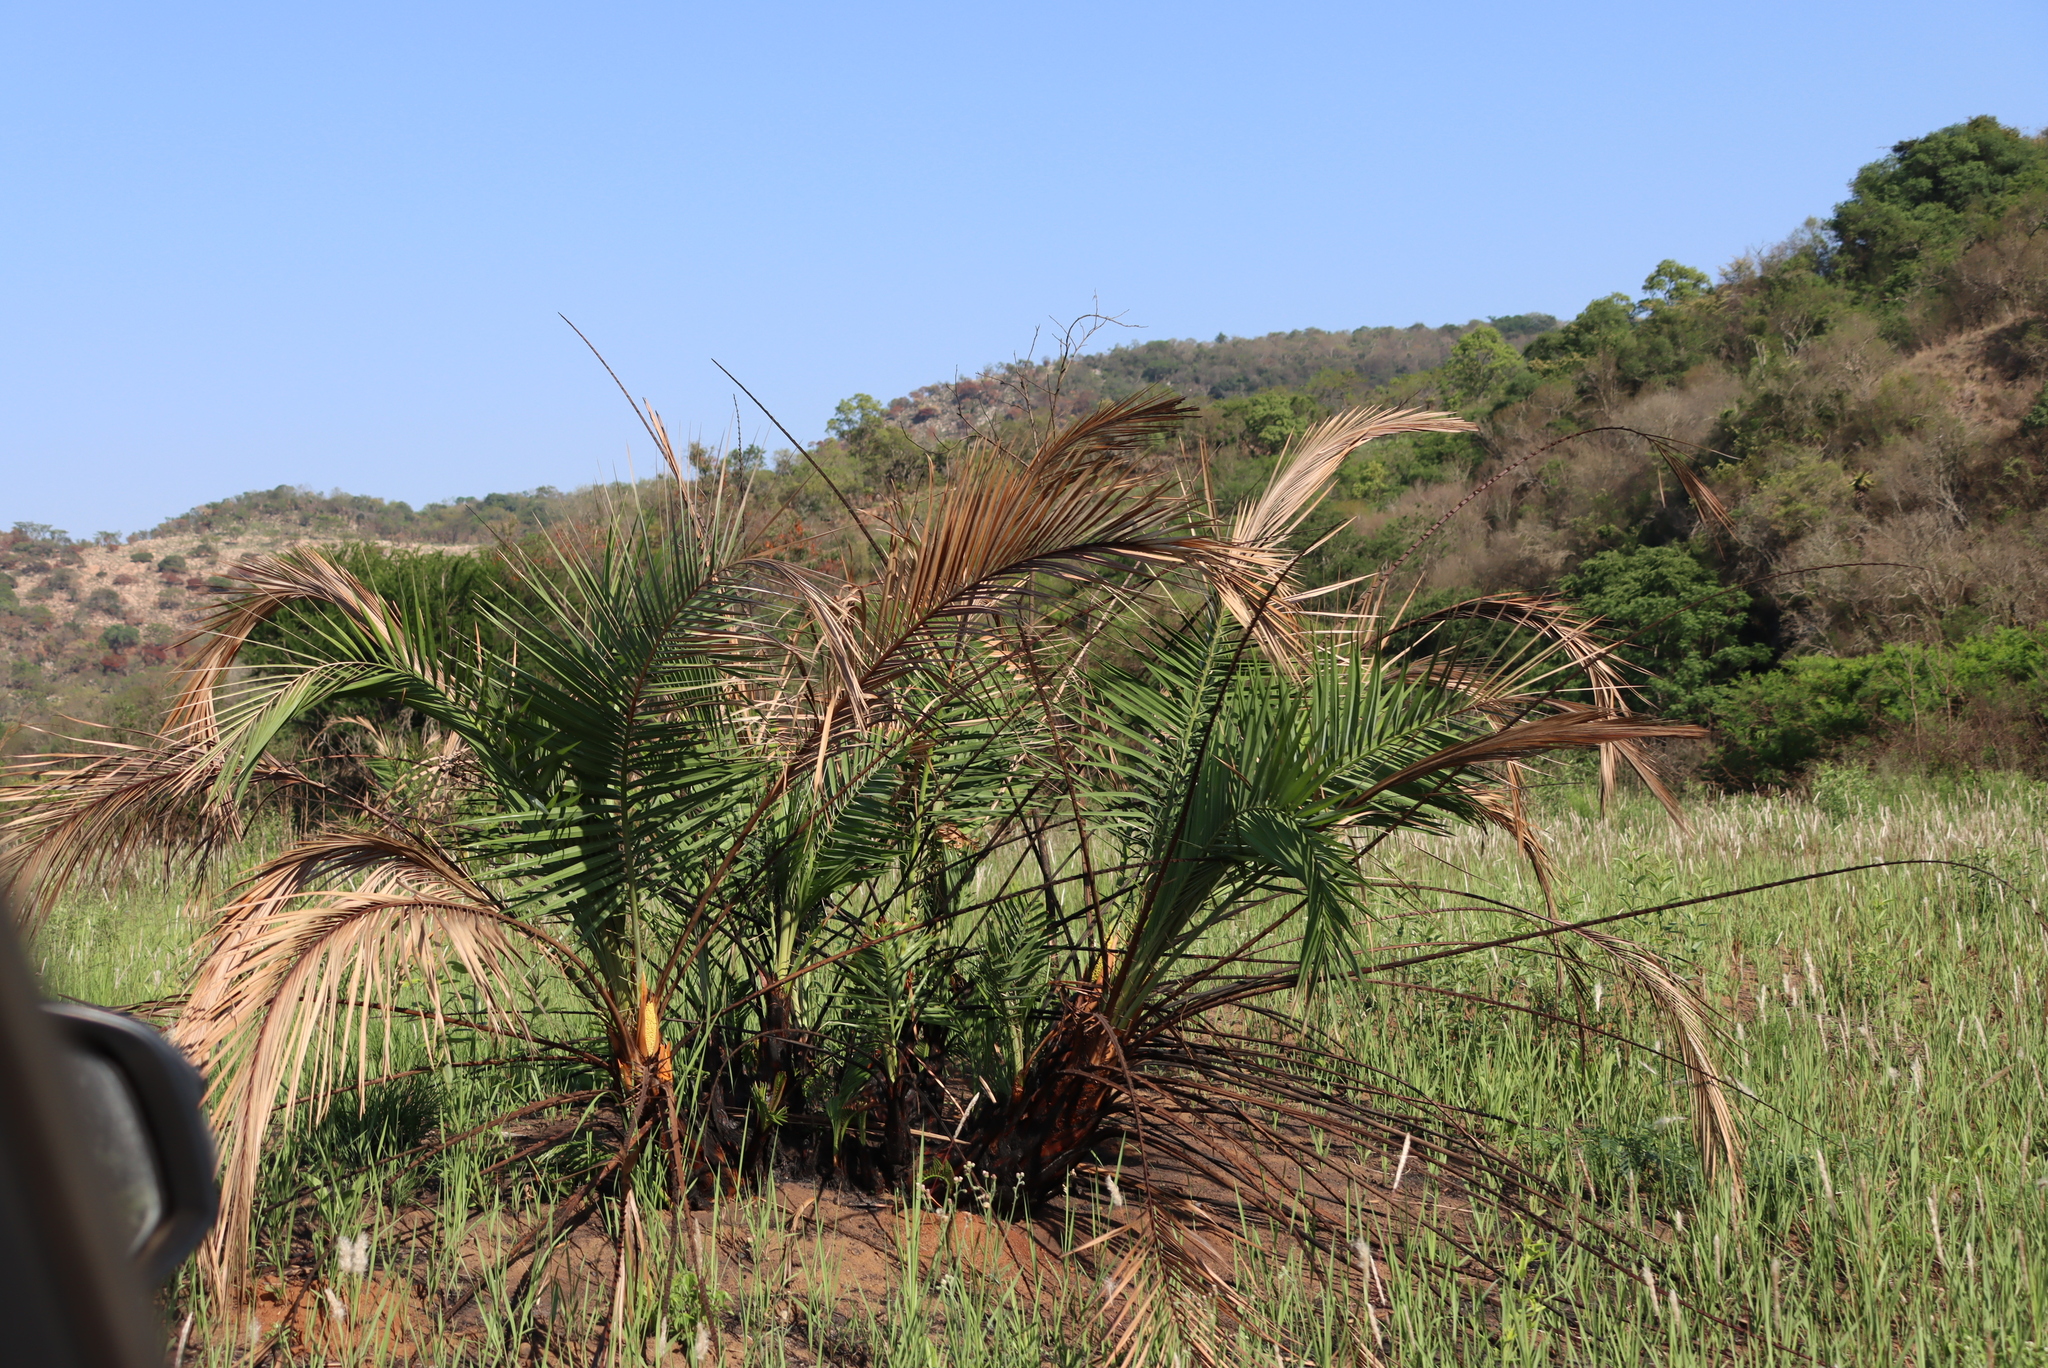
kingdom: Plantae
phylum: Tracheophyta
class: Liliopsida
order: Arecales
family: Arecaceae
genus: Phoenix
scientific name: Phoenix reclinata
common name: Senegal date palm
